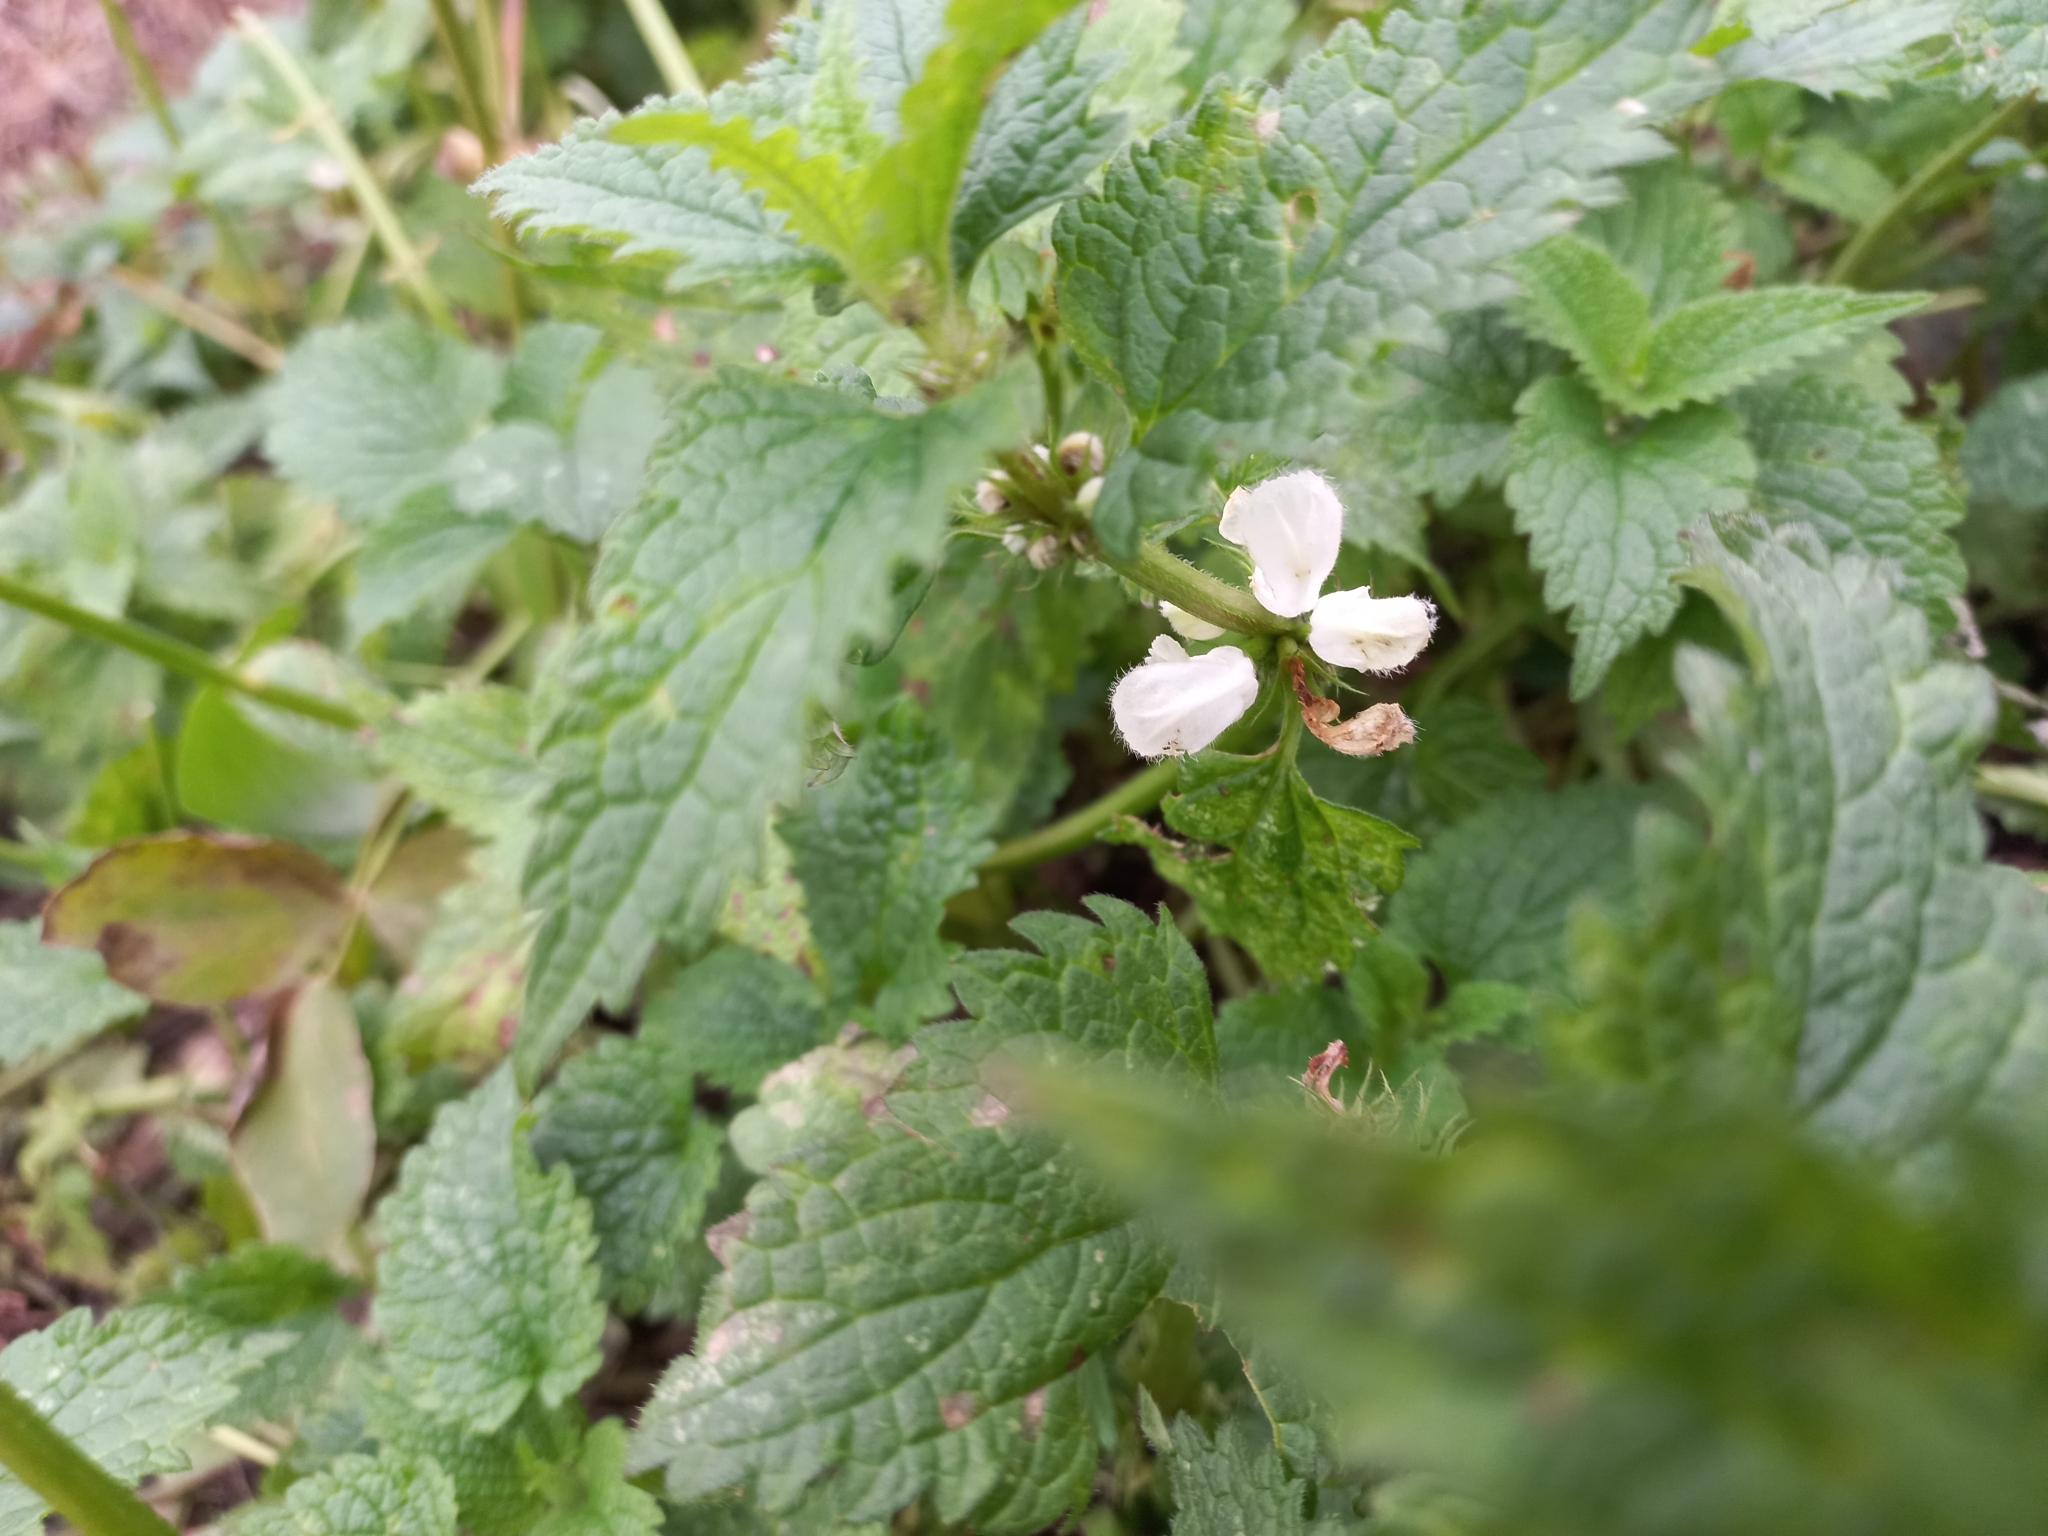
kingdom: Plantae
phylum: Tracheophyta
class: Magnoliopsida
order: Lamiales
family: Lamiaceae
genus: Lamium
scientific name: Lamium album
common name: White dead-nettle
